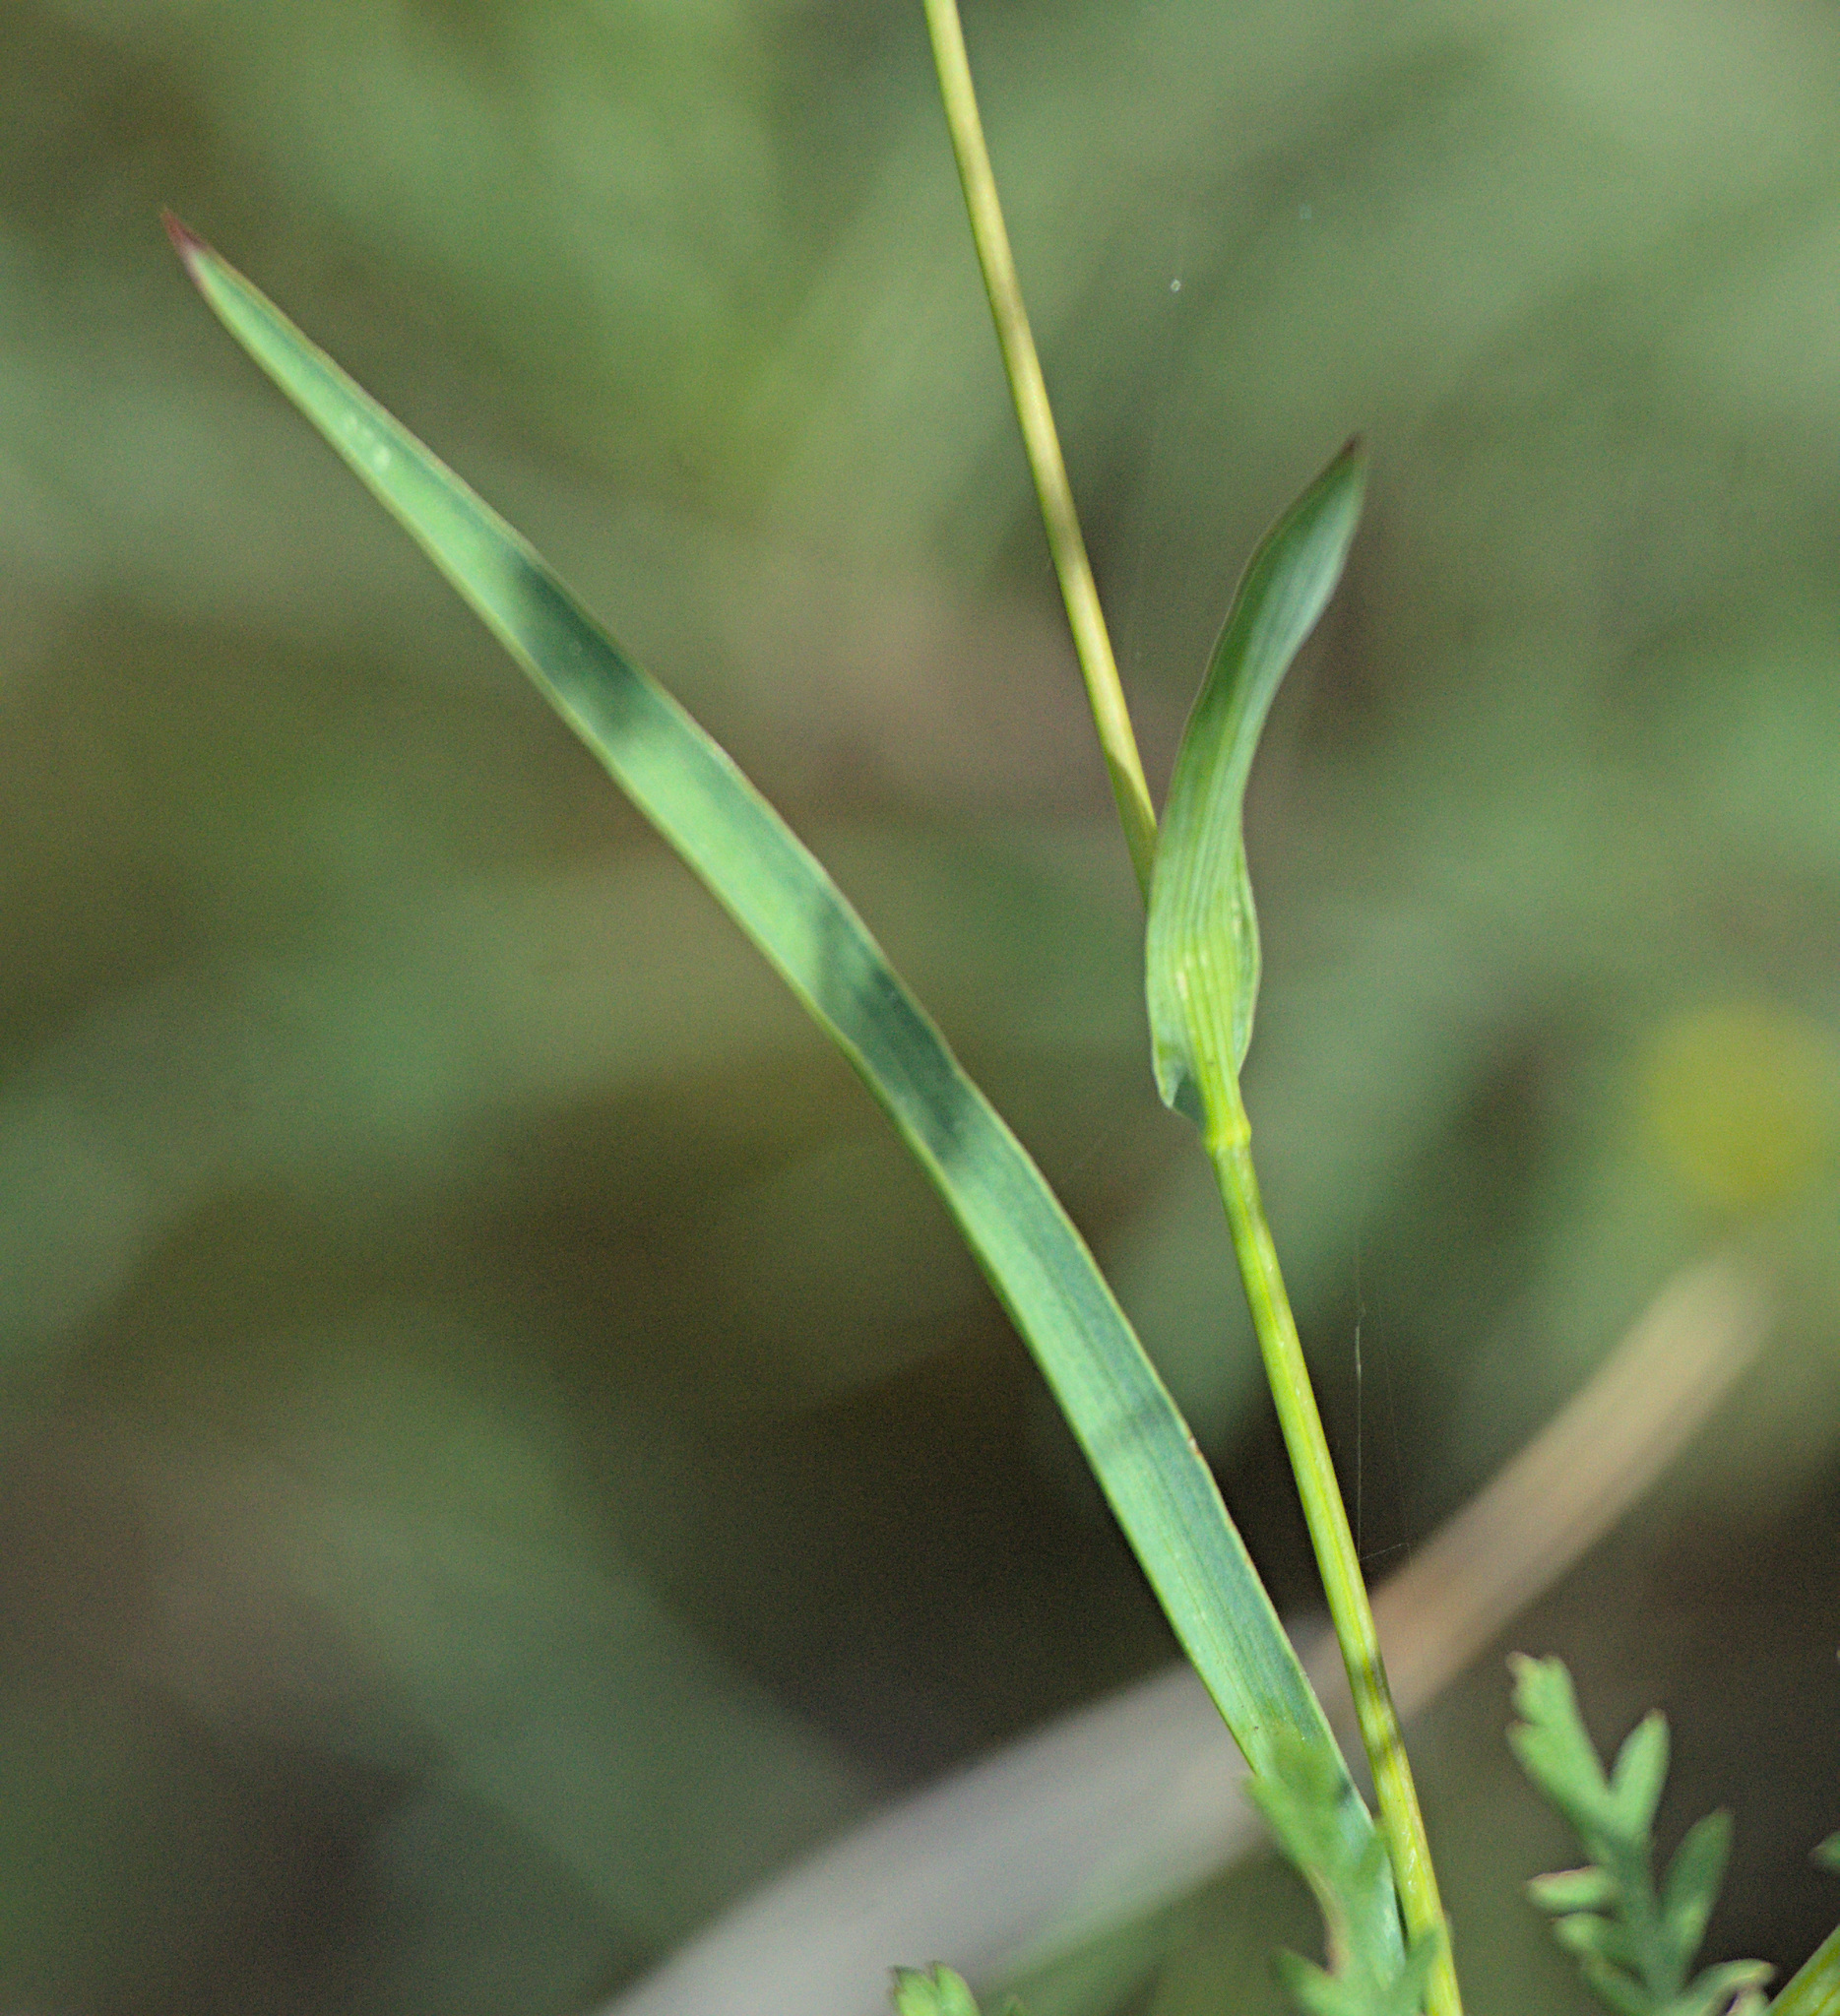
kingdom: Plantae
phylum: Tracheophyta
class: Magnoliopsida
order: Apiales
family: Apiaceae
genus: Bupleurum
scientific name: Bupleurum multinerve
